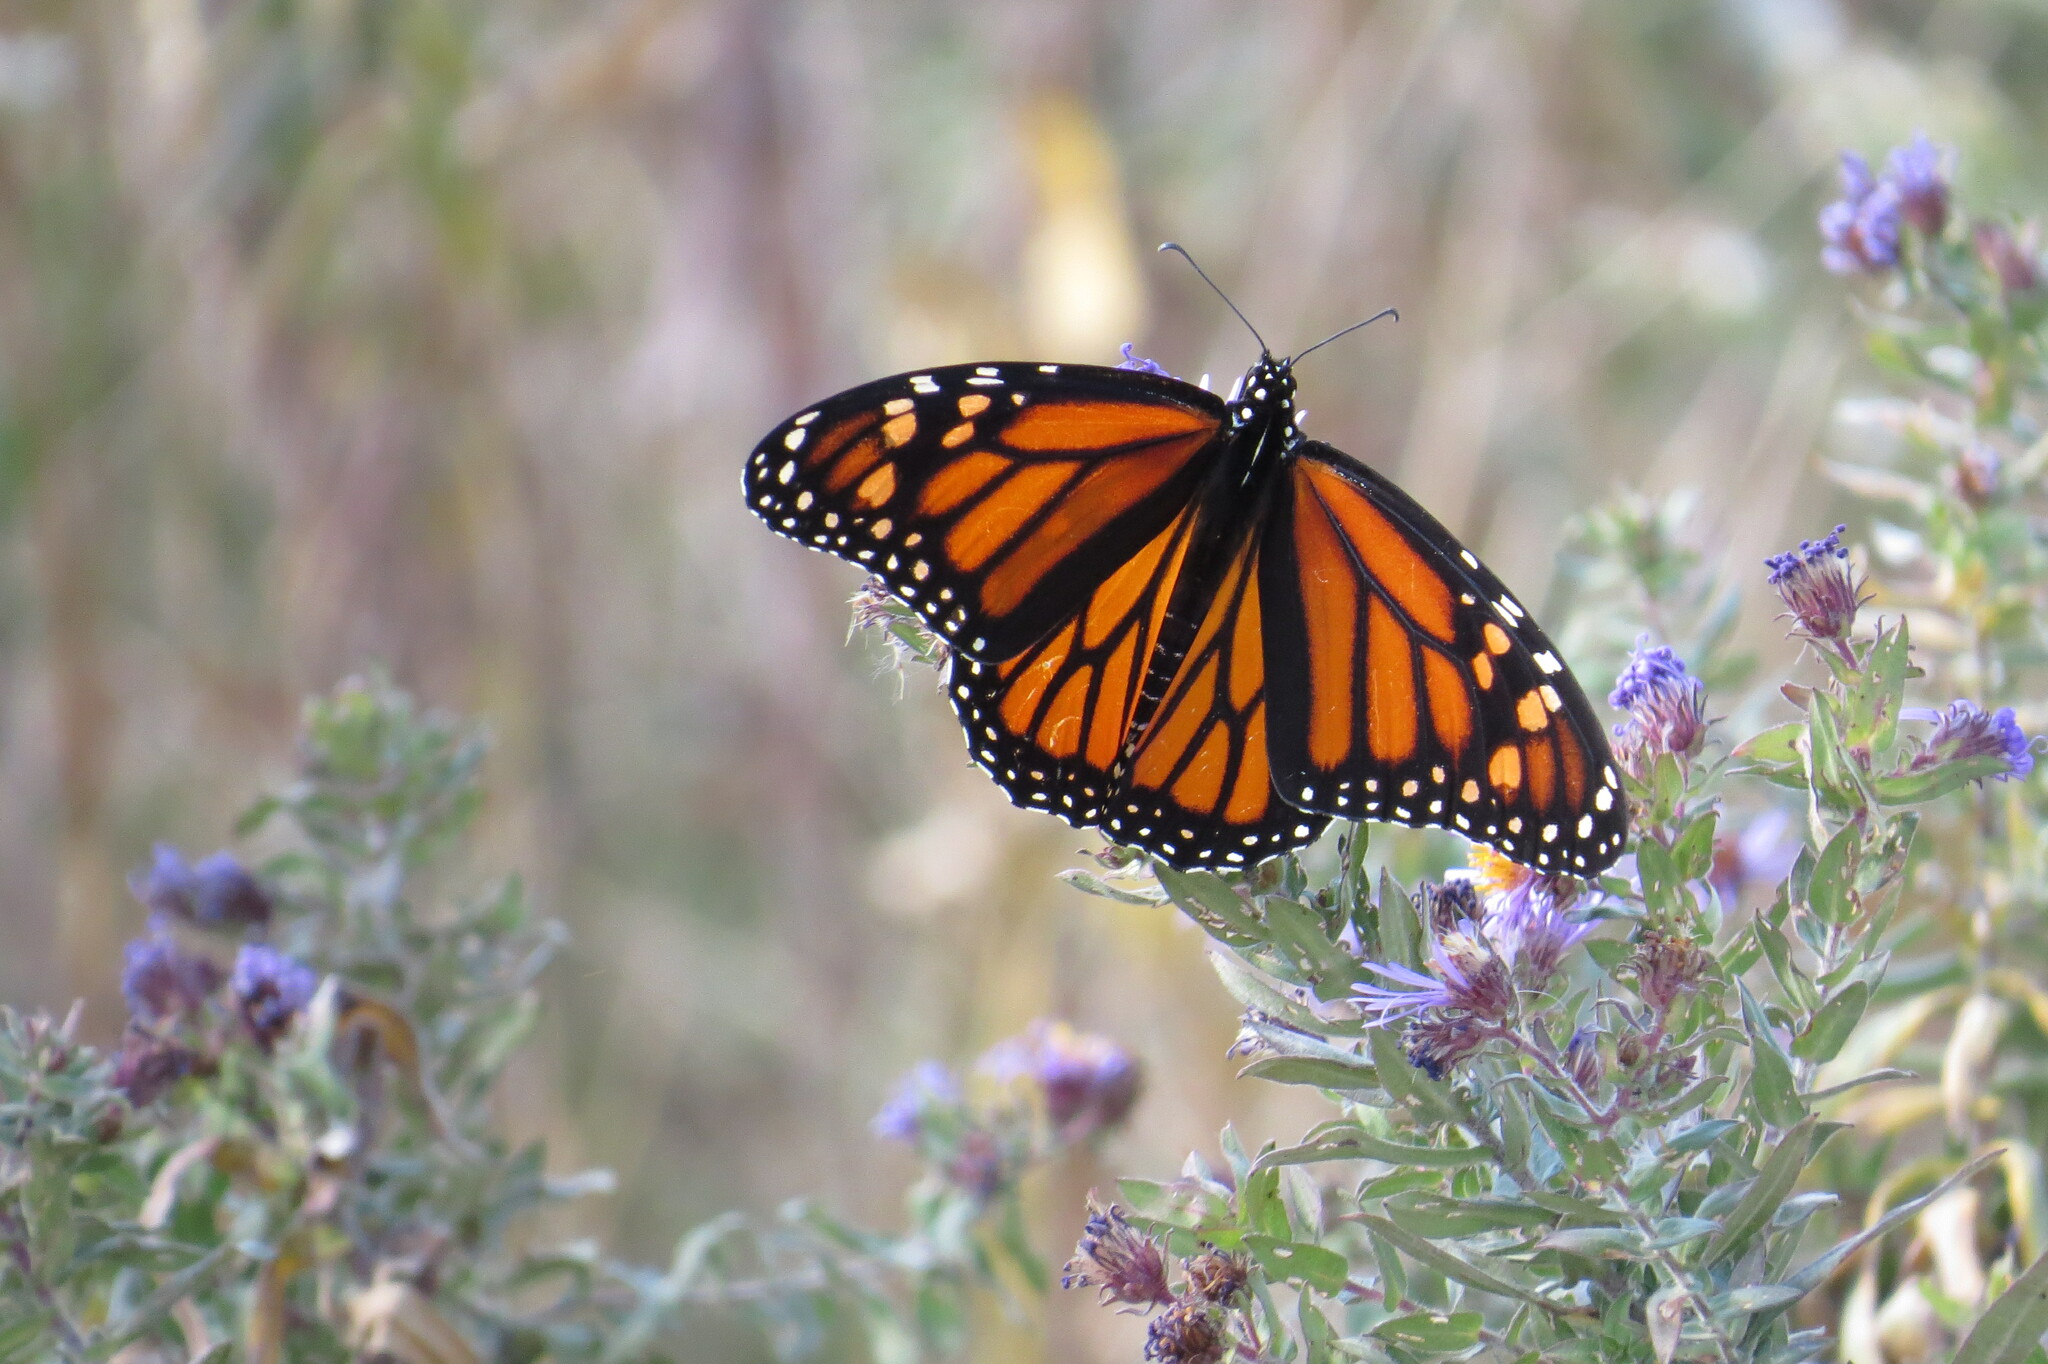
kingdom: Animalia
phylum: Arthropoda
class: Insecta
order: Lepidoptera
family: Nymphalidae
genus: Danaus
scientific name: Danaus plexippus
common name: Monarch
